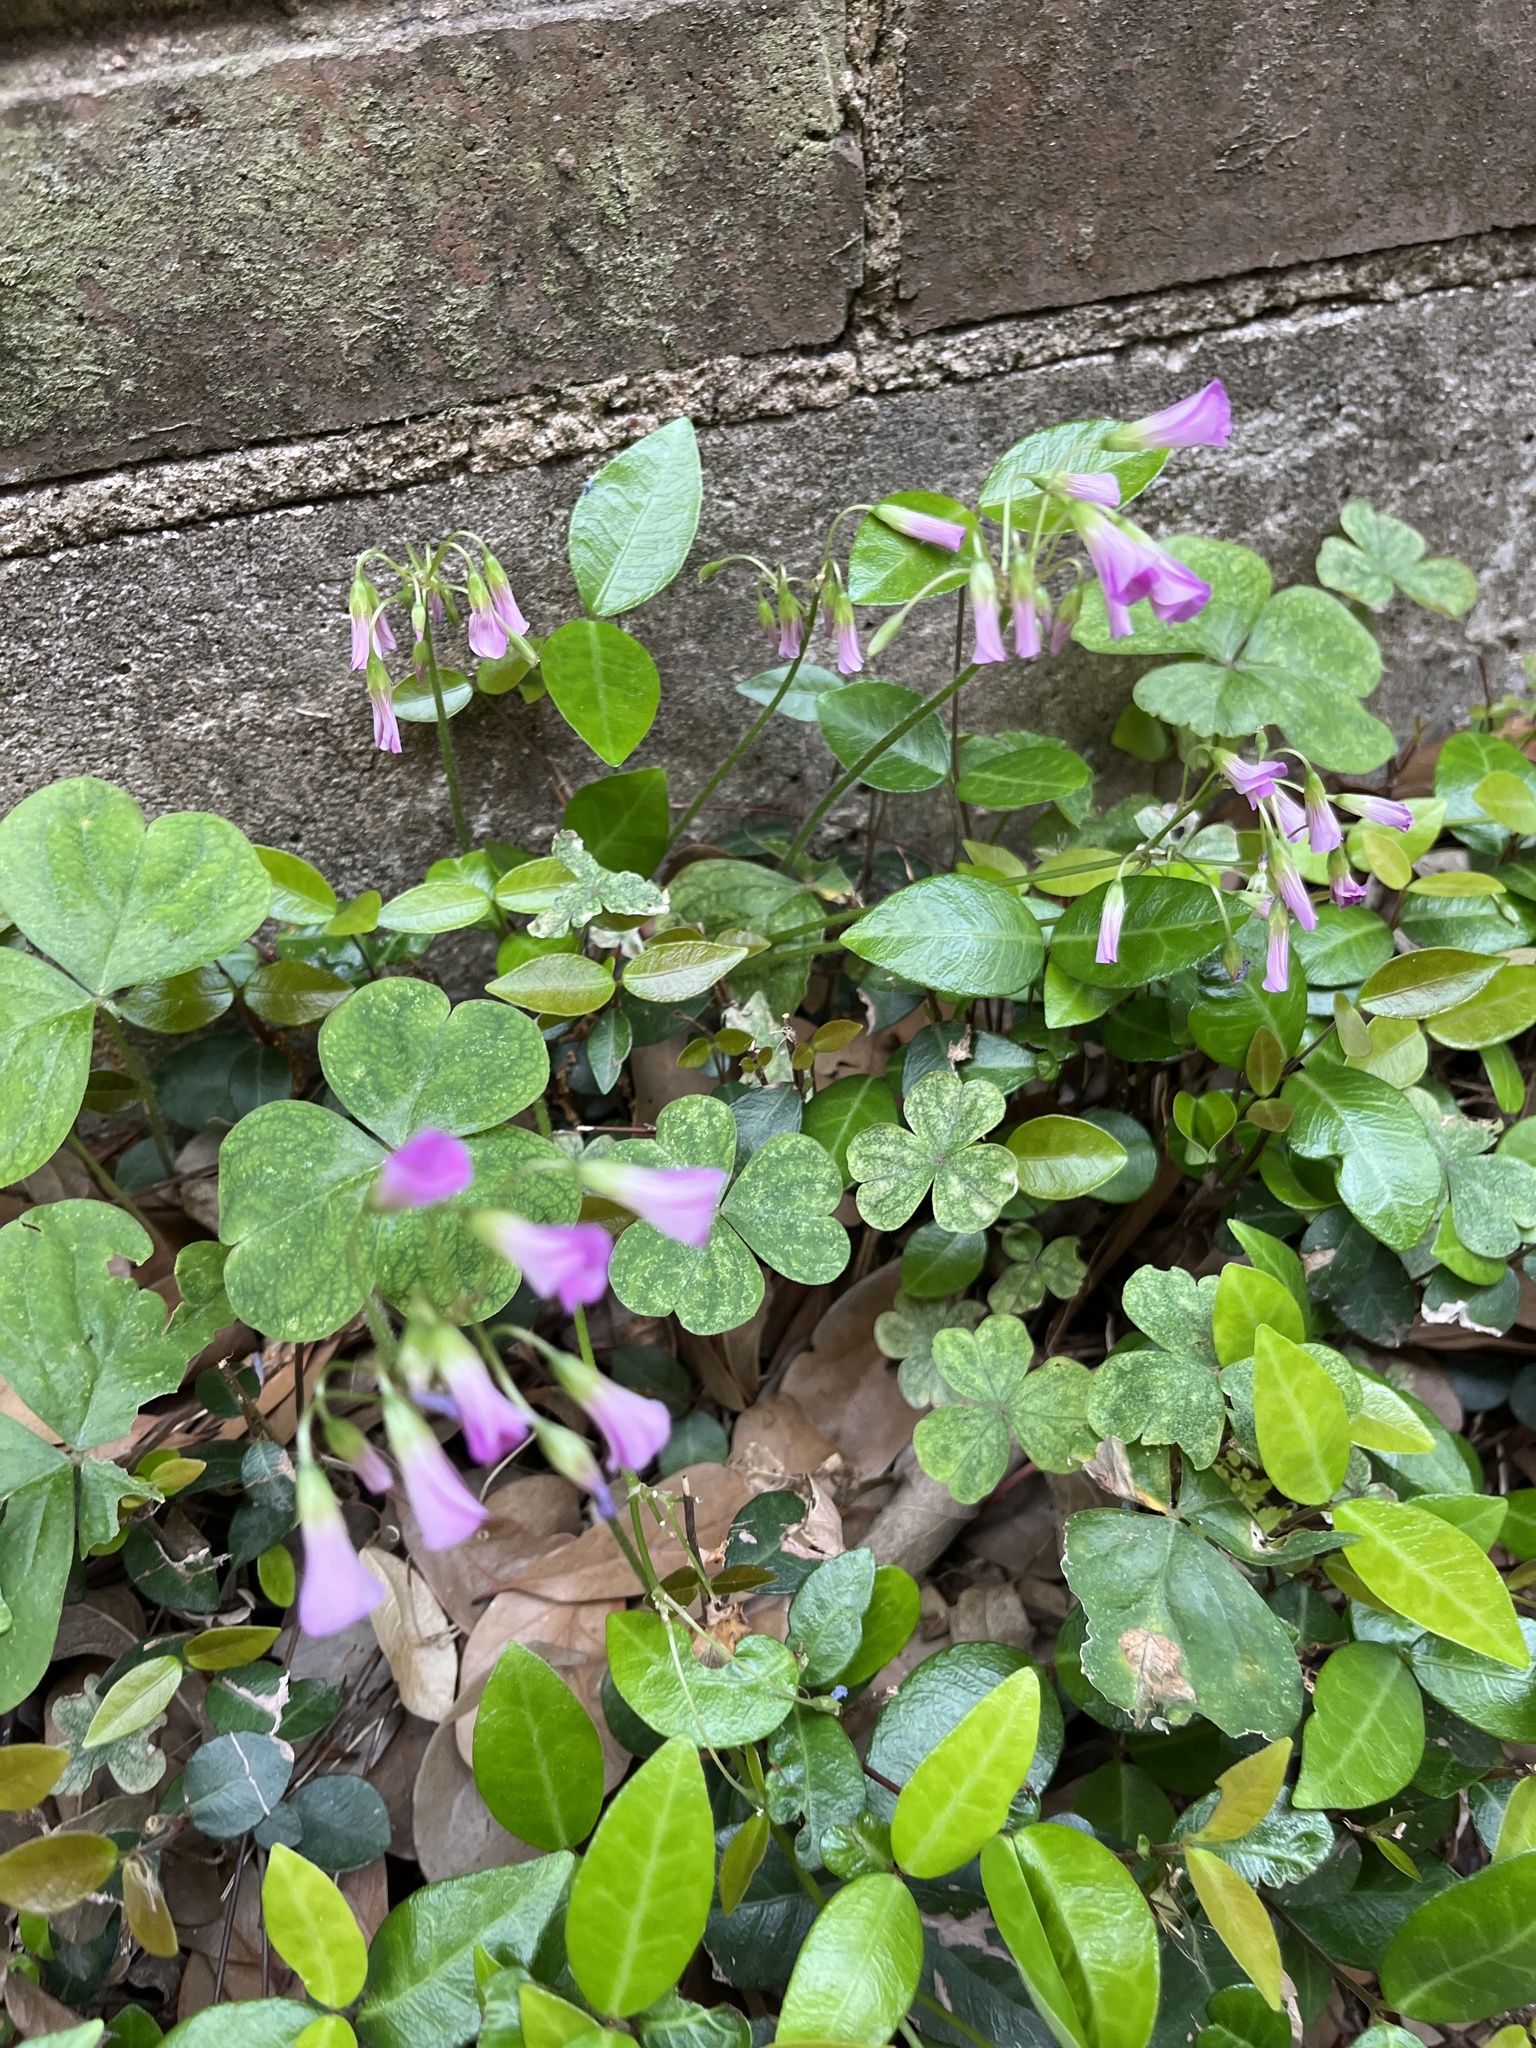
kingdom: Plantae
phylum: Tracheophyta
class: Magnoliopsida
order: Oxalidales
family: Oxalidaceae
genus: Oxalis
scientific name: Oxalis debilis
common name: Large-flowered pink-sorrel
